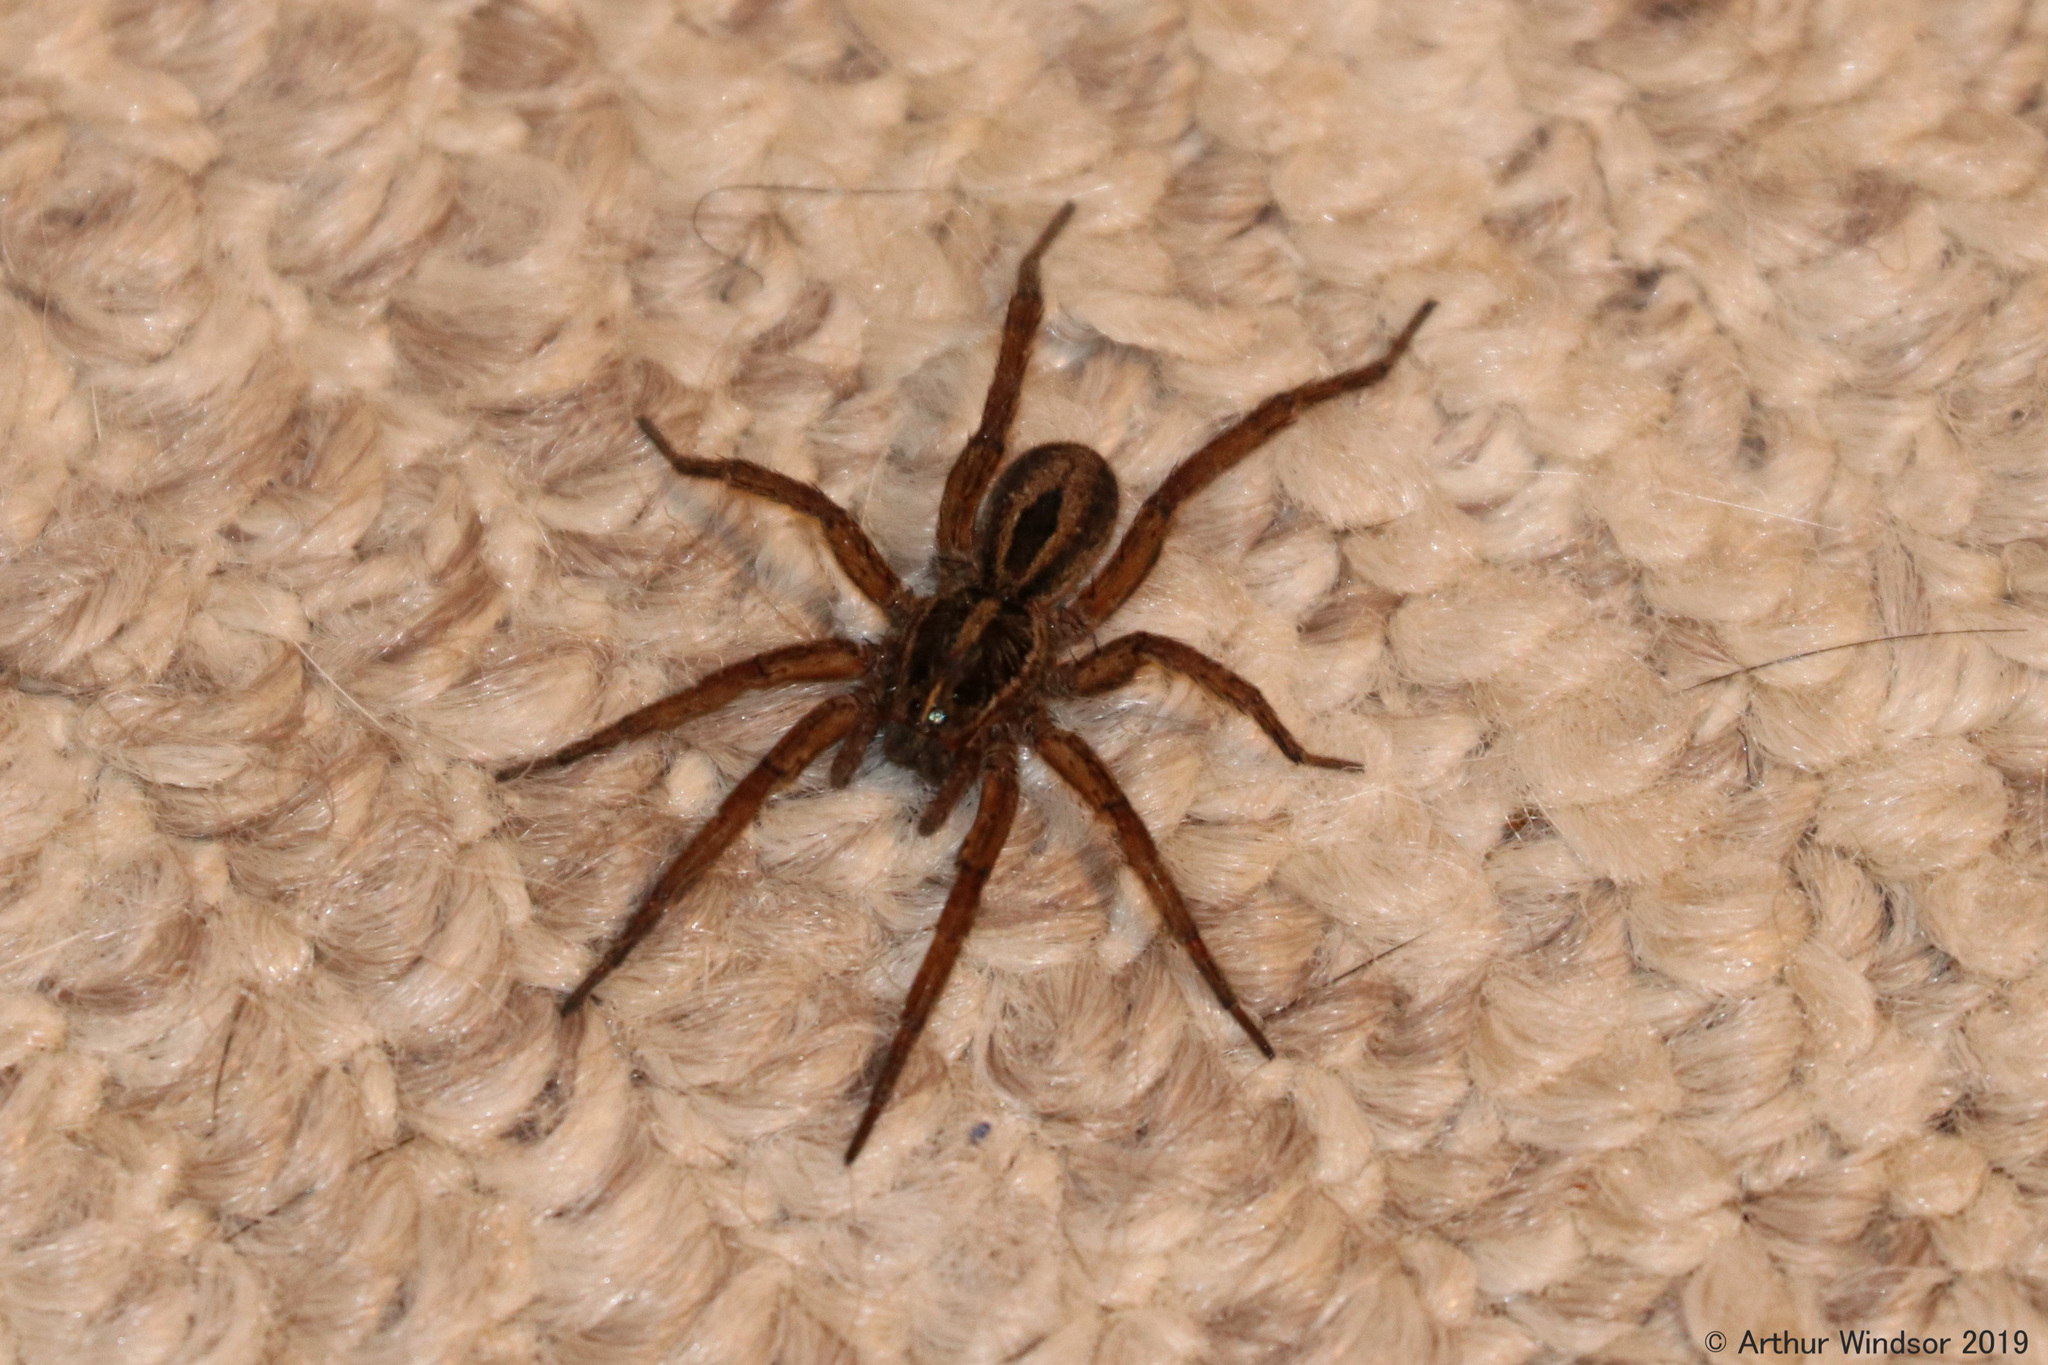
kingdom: Animalia
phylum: Arthropoda
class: Arachnida
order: Araneae
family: Lycosidae
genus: Tigrosa
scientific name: Tigrosa annexa
